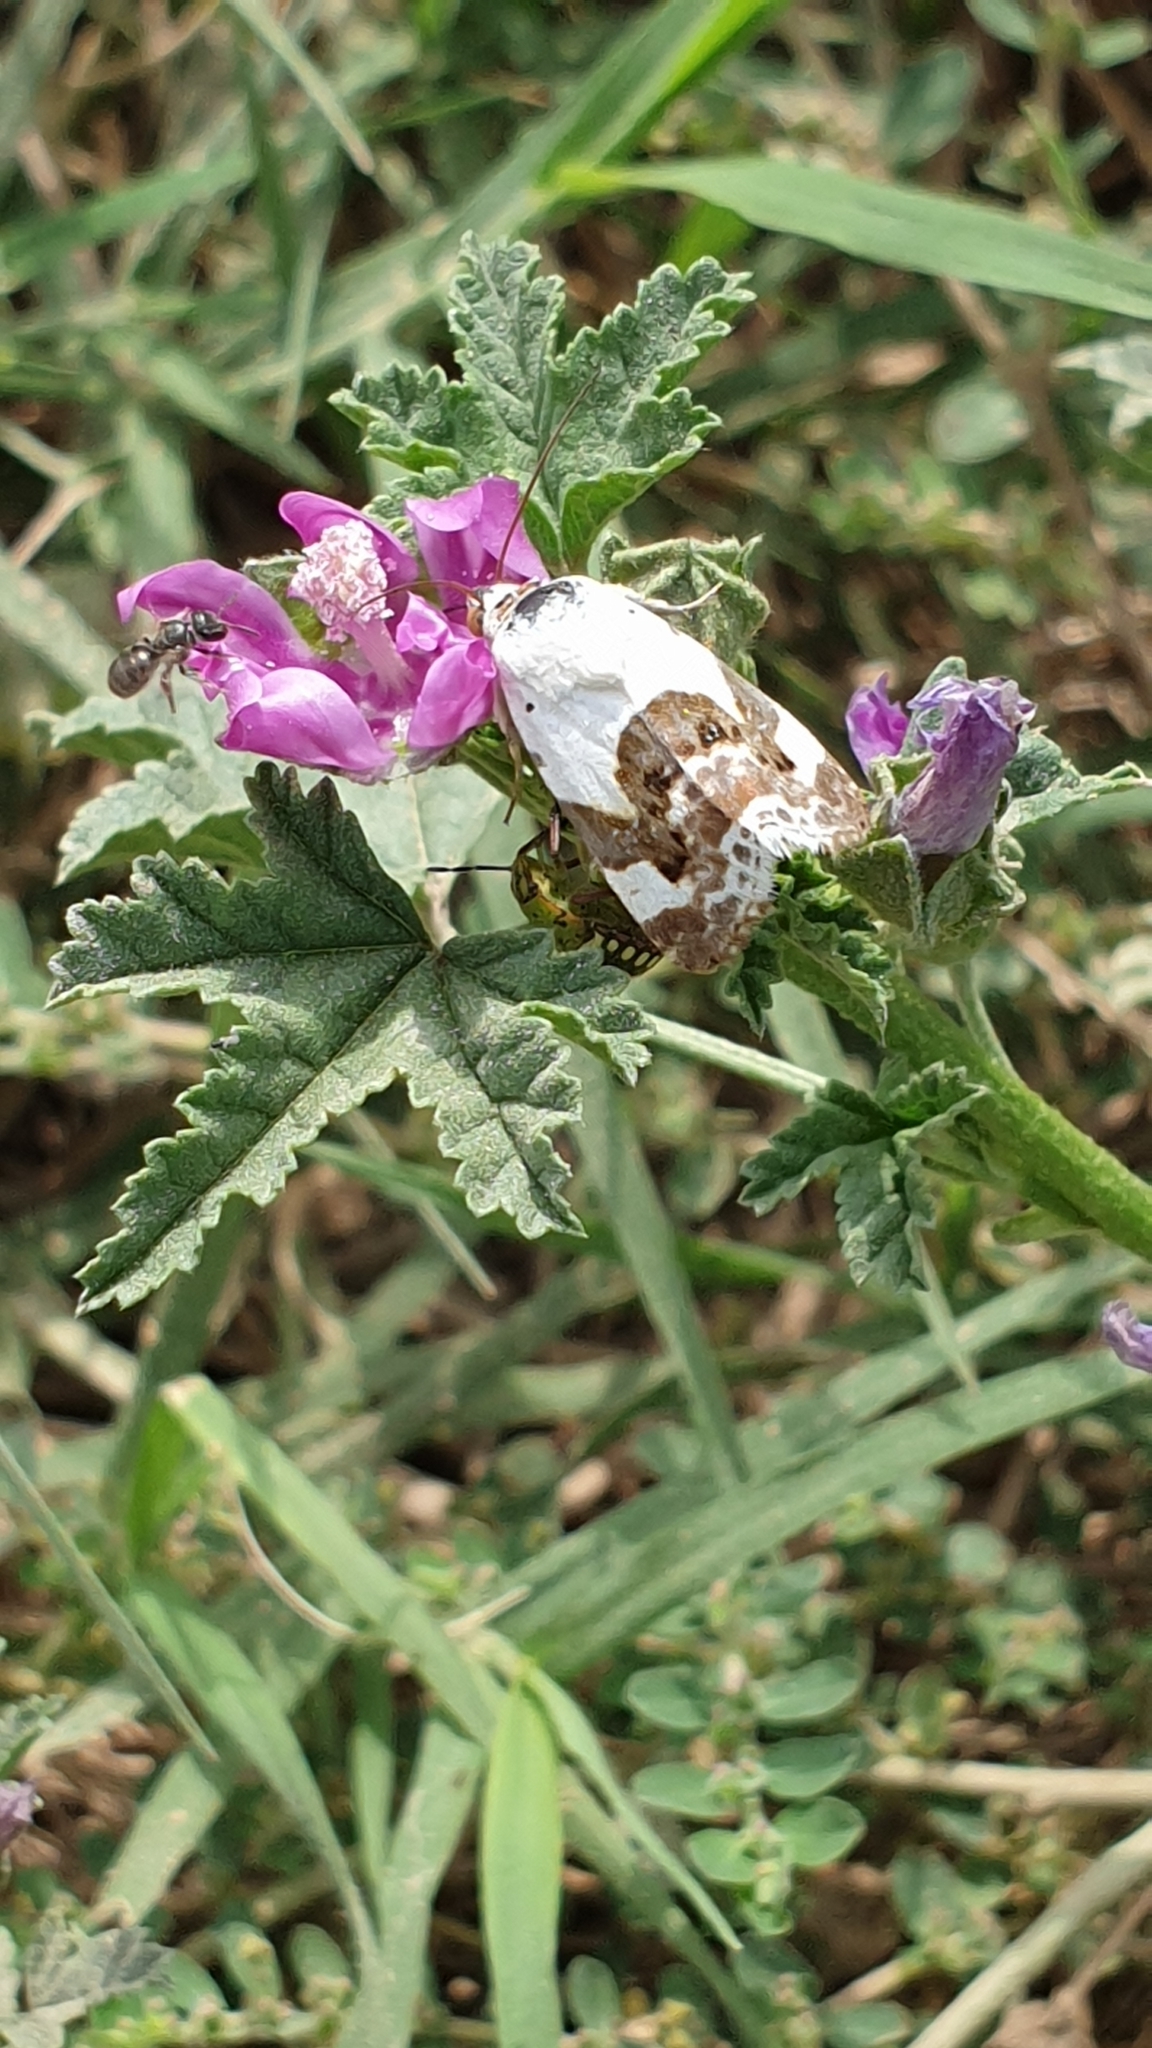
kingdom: Animalia
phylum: Arthropoda
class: Insecta
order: Lepidoptera
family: Noctuidae
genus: Acontia
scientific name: Acontia lucida
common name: Pale shoulder
